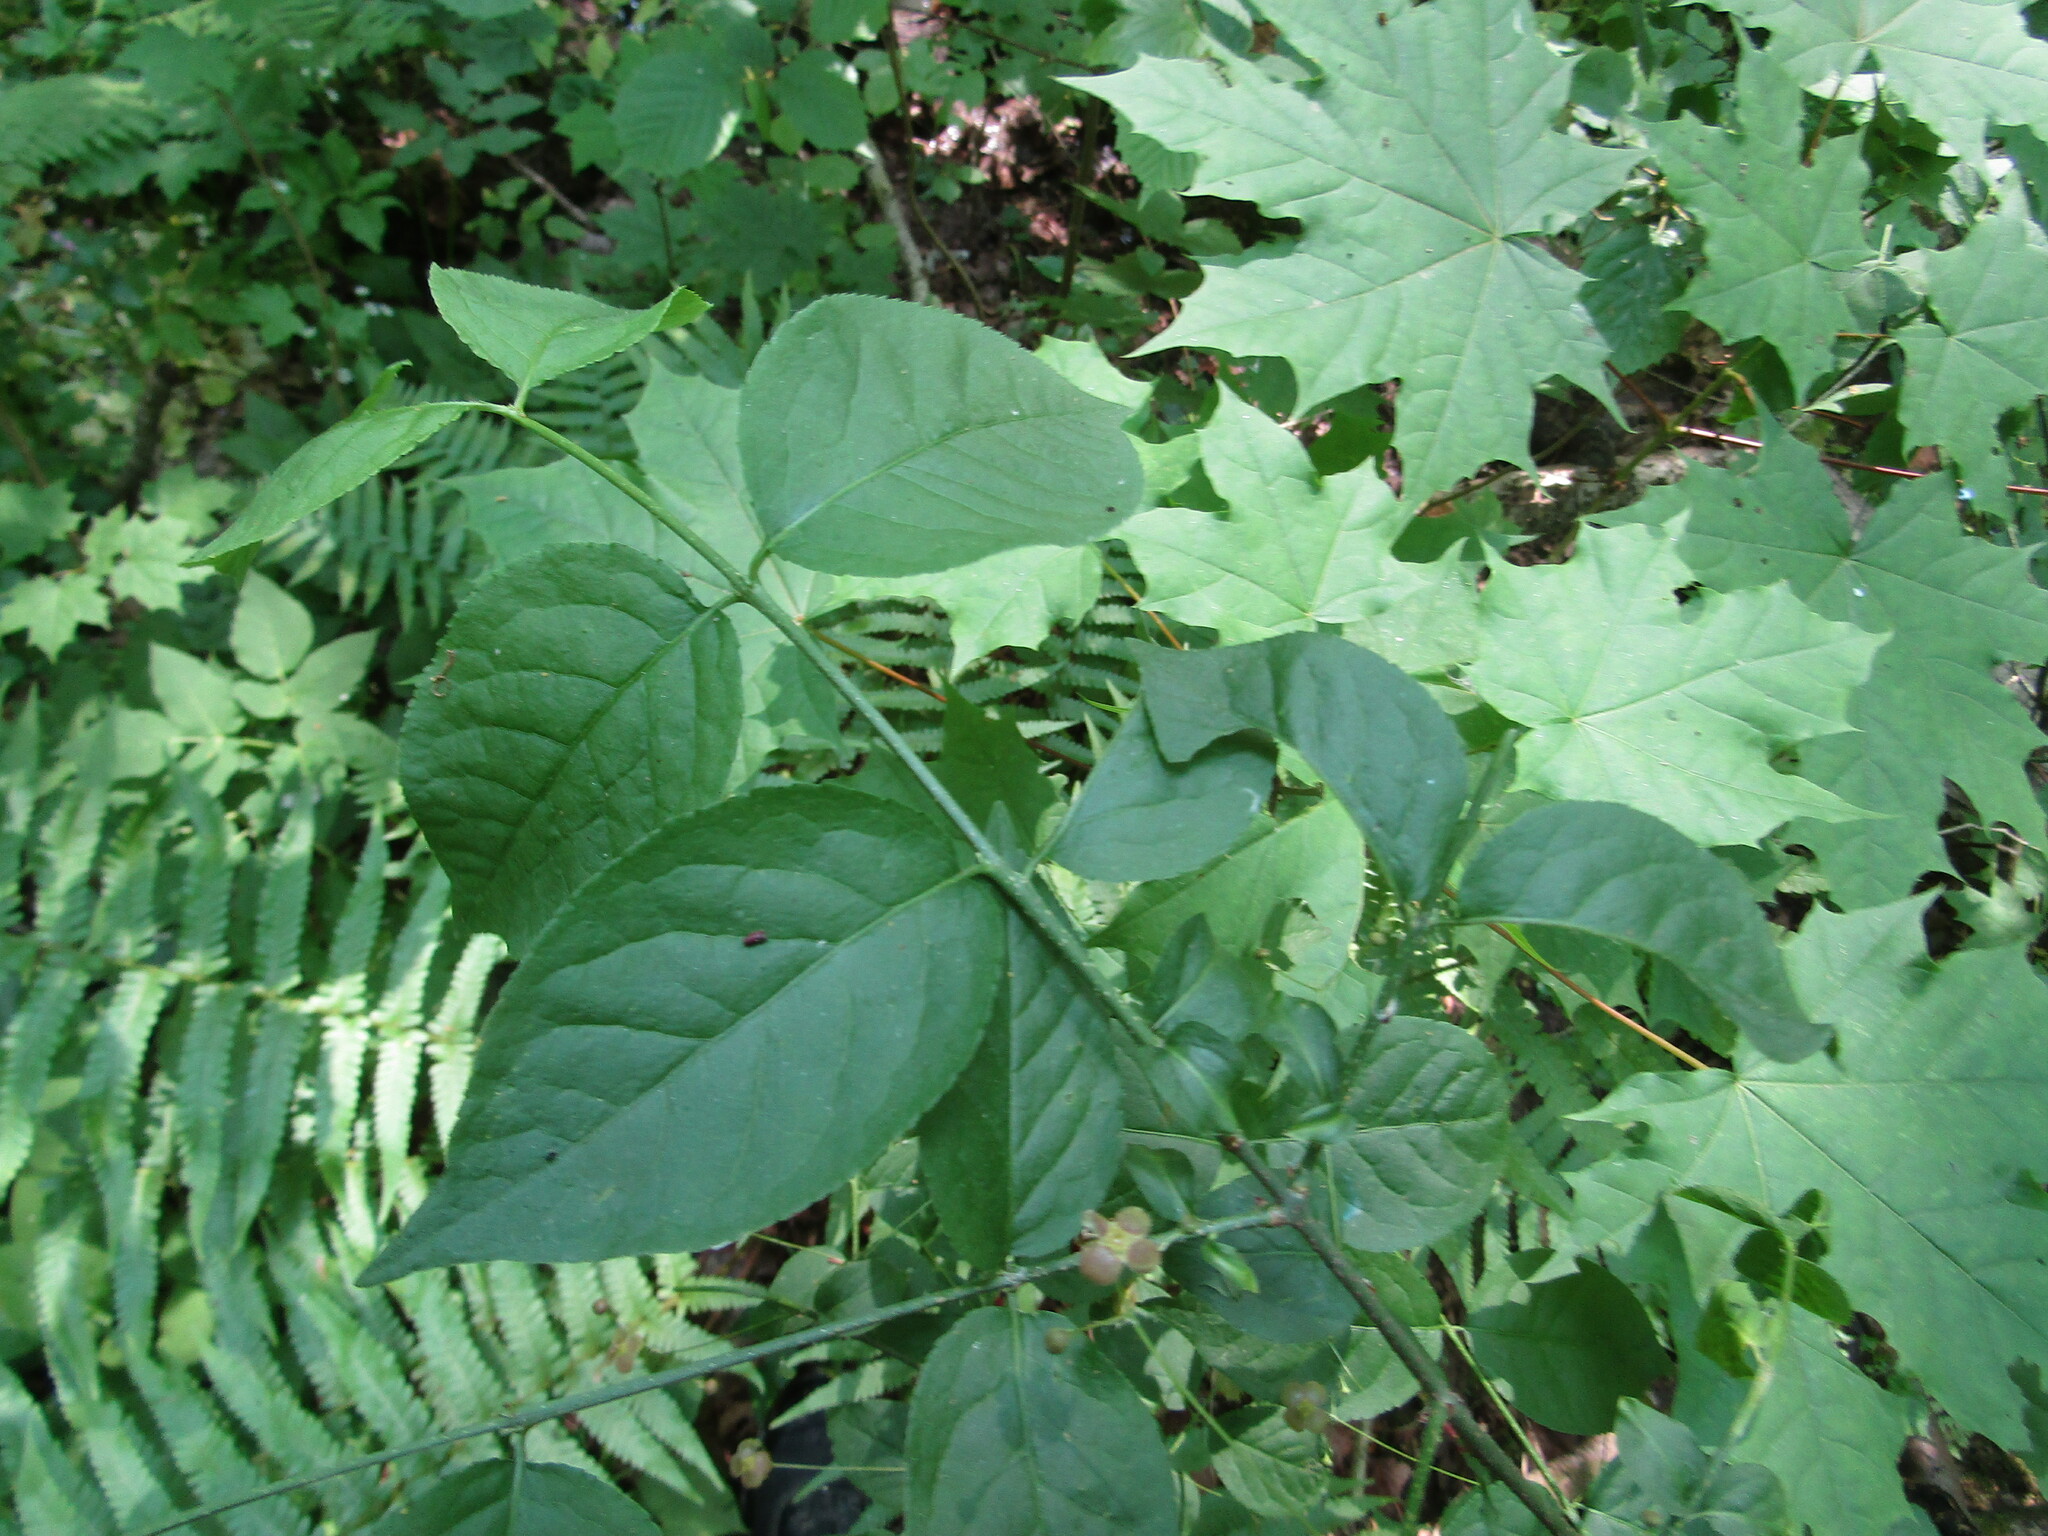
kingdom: Plantae
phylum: Tracheophyta
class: Magnoliopsida
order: Celastrales
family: Celastraceae
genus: Euonymus
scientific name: Euonymus verrucosus
